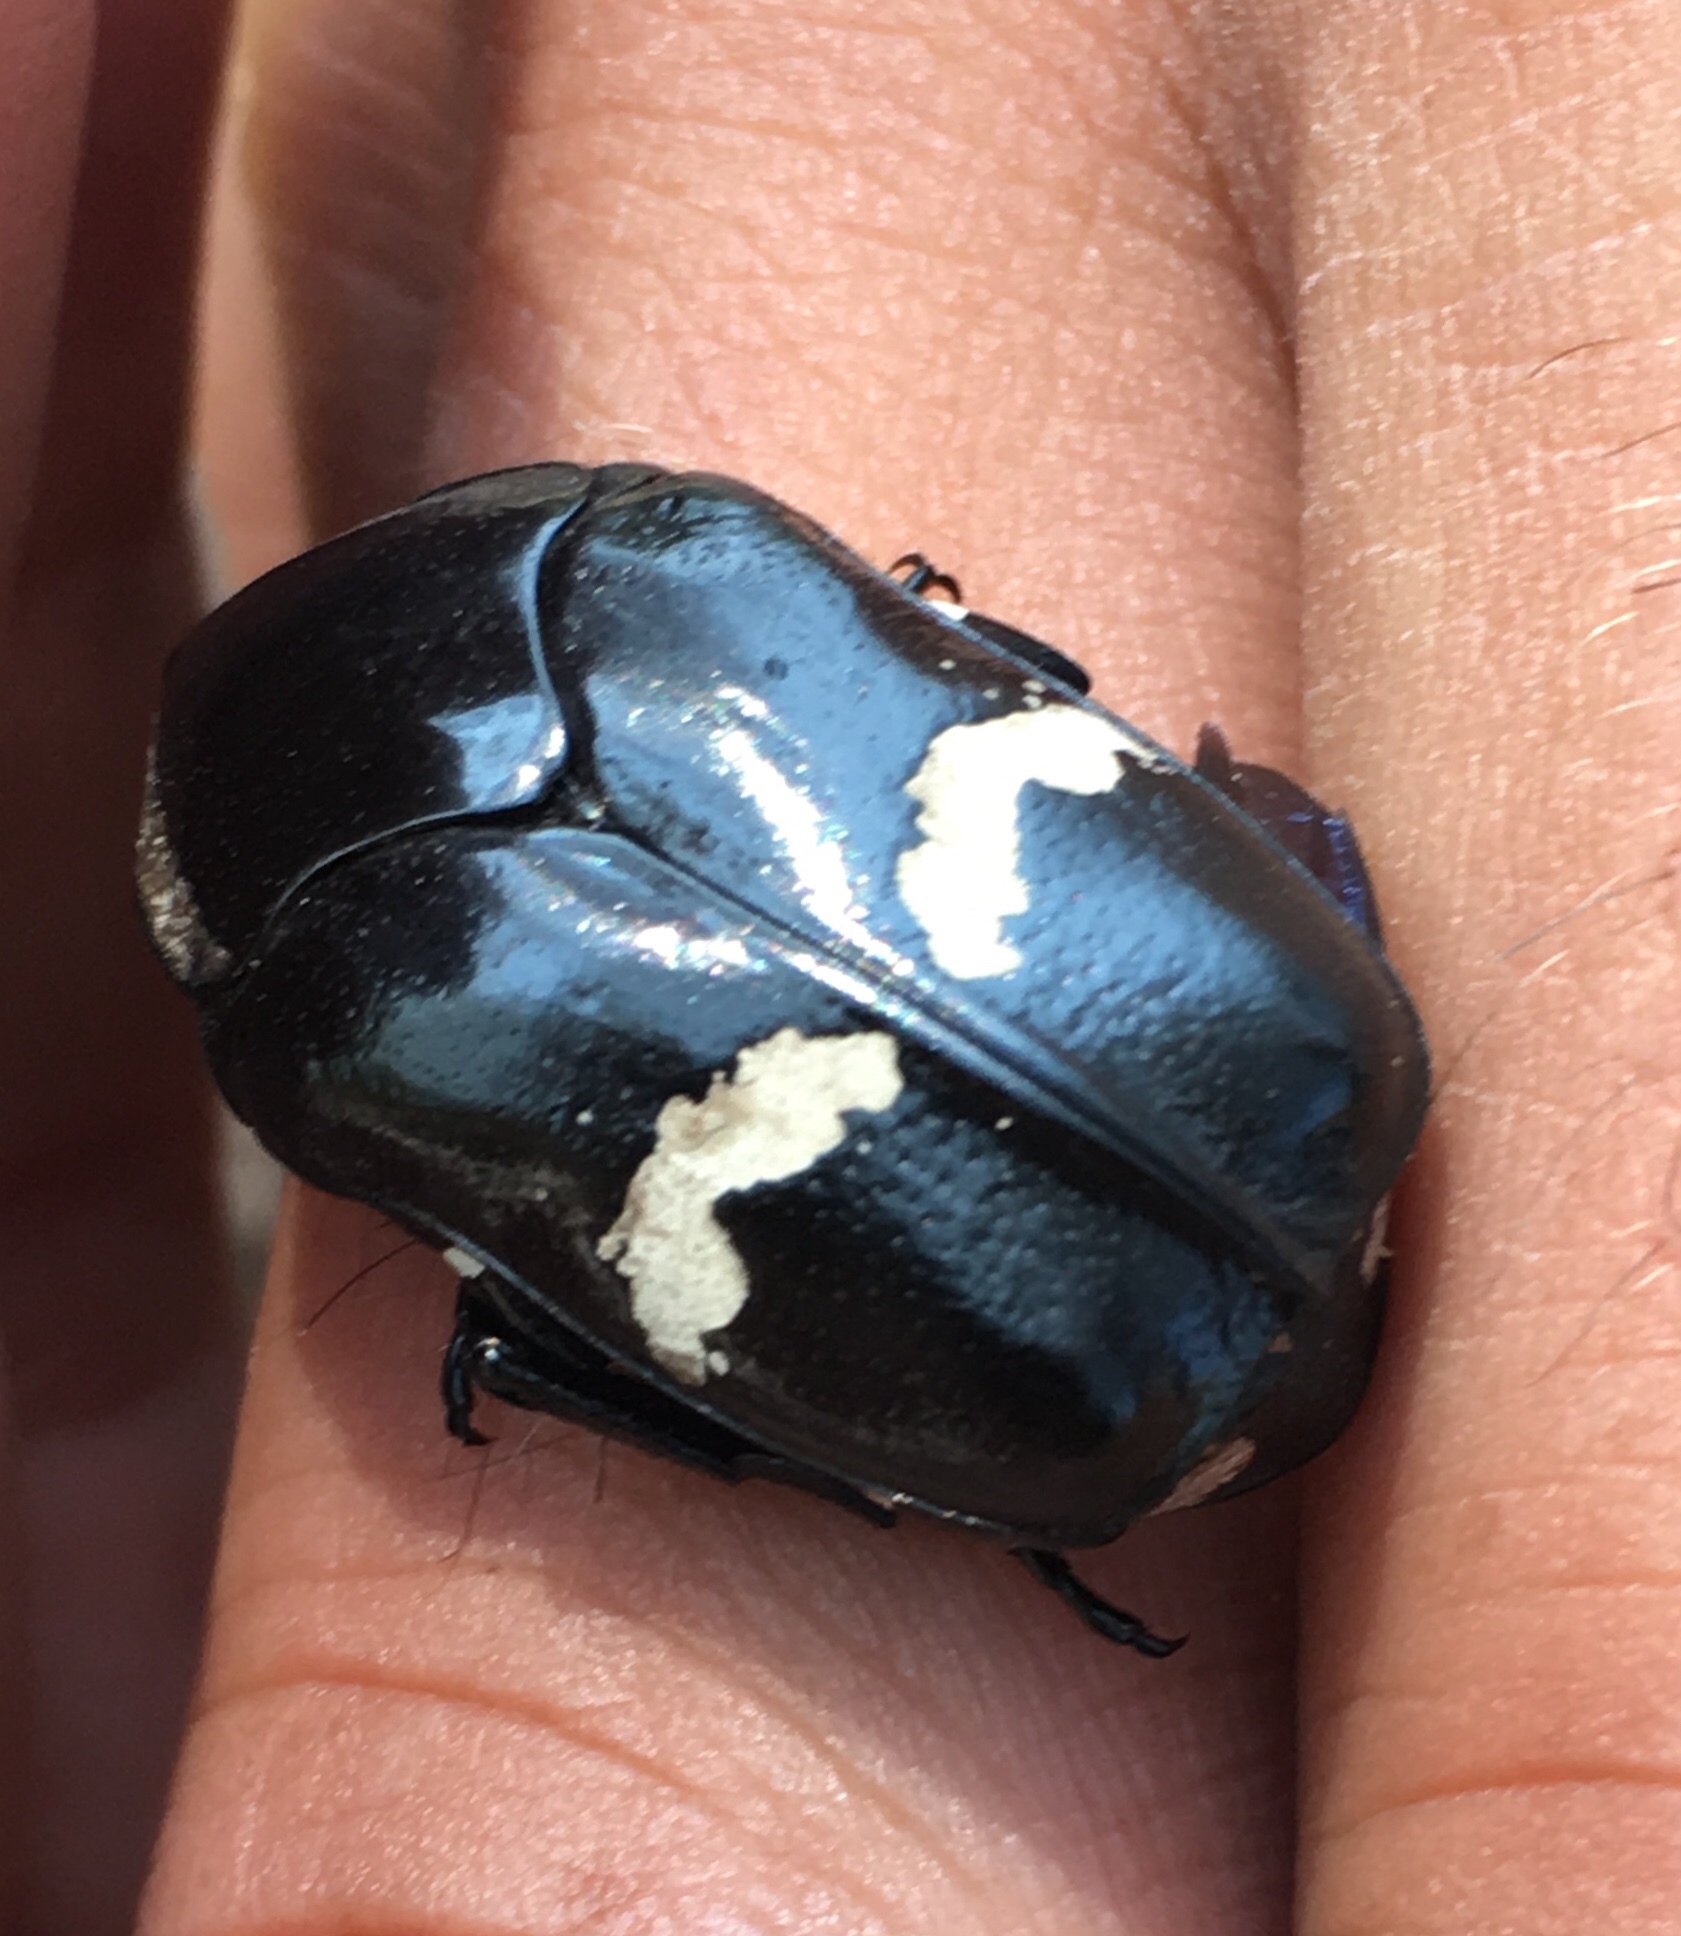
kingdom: Animalia
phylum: Arthropoda
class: Insecta
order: Coleoptera
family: Scarabaeidae
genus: Gymnetina
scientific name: Gymnetina howdeni
